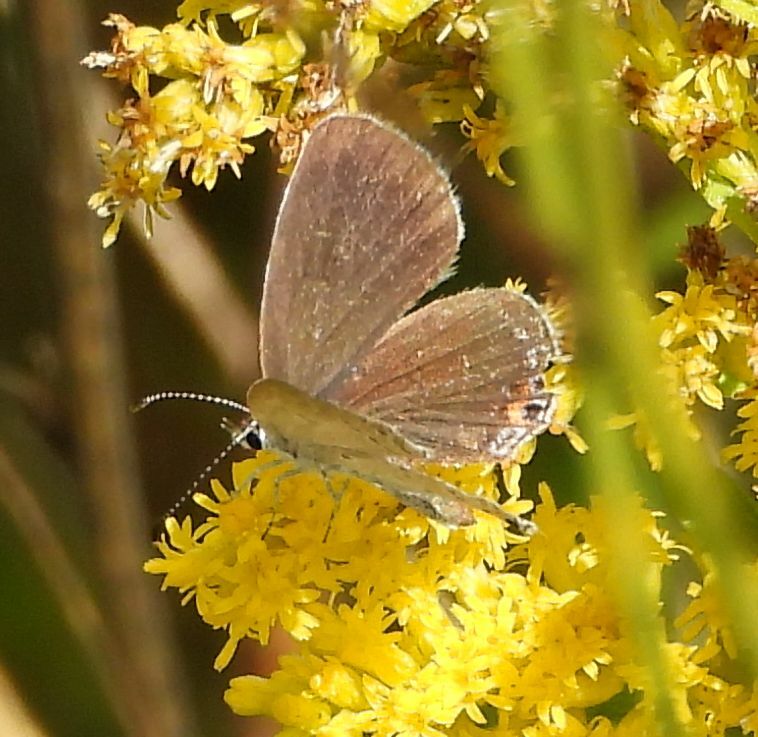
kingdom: Animalia
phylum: Arthropoda
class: Insecta
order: Lepidoptera
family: Lycaenidae
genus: Elkalyce
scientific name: Elkalyce comyntas
